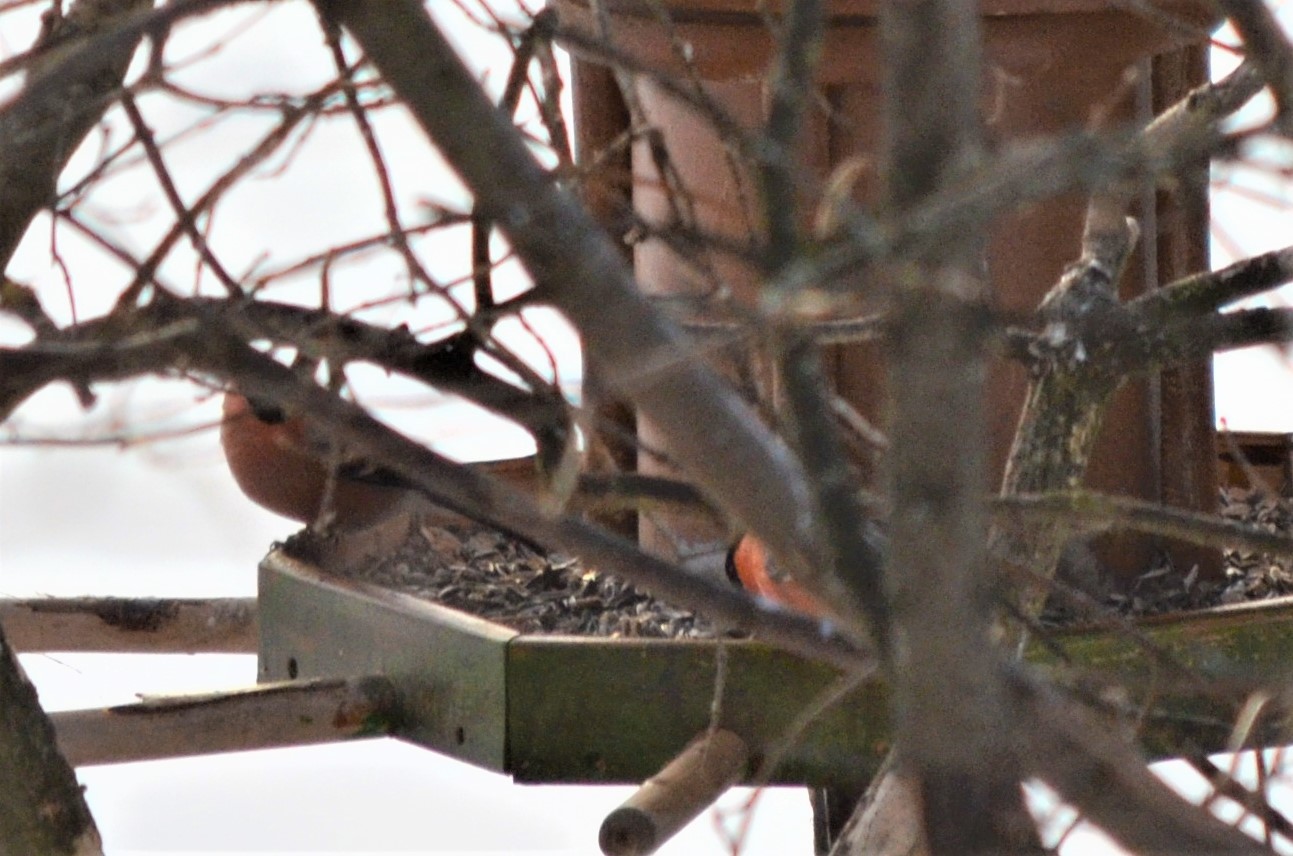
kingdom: Animalia
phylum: Chordata
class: Aves
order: Passeriformes
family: Fringillidae
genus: Pyrrhula
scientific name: Pyrrhula pyrrhula
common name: Eurasian bullfinch
